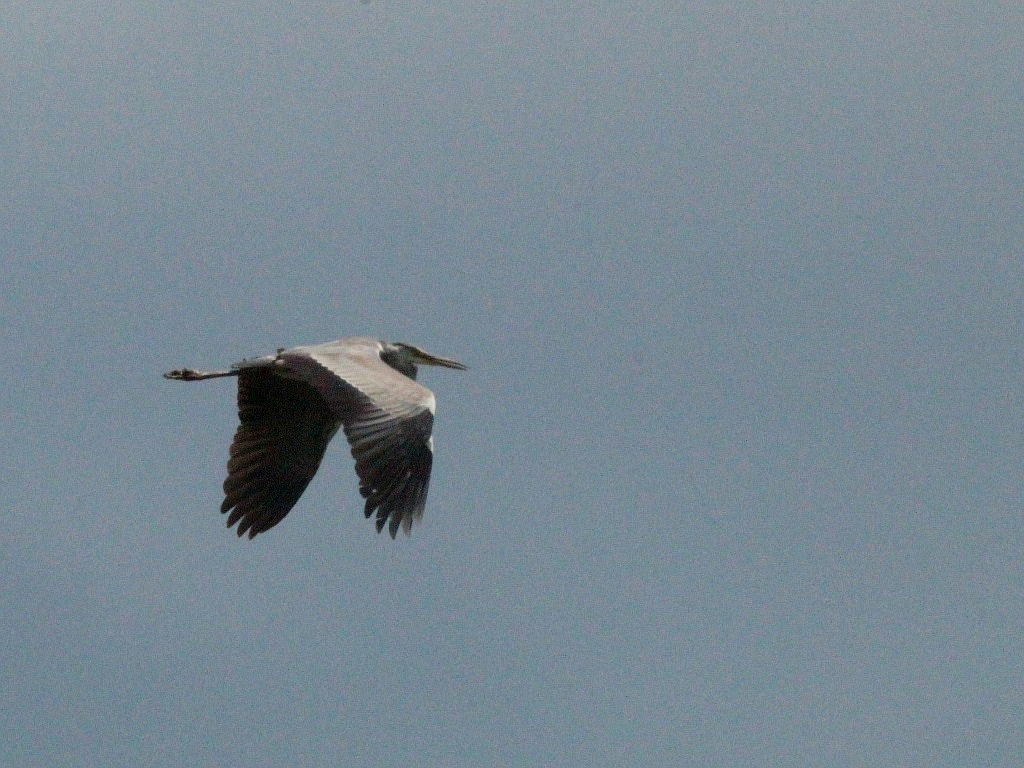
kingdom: Animalia
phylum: Chordata
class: Aves
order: Pelecaniformes
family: Ardeidae
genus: Ardea
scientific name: Ardea cinerea
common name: Grey heron
